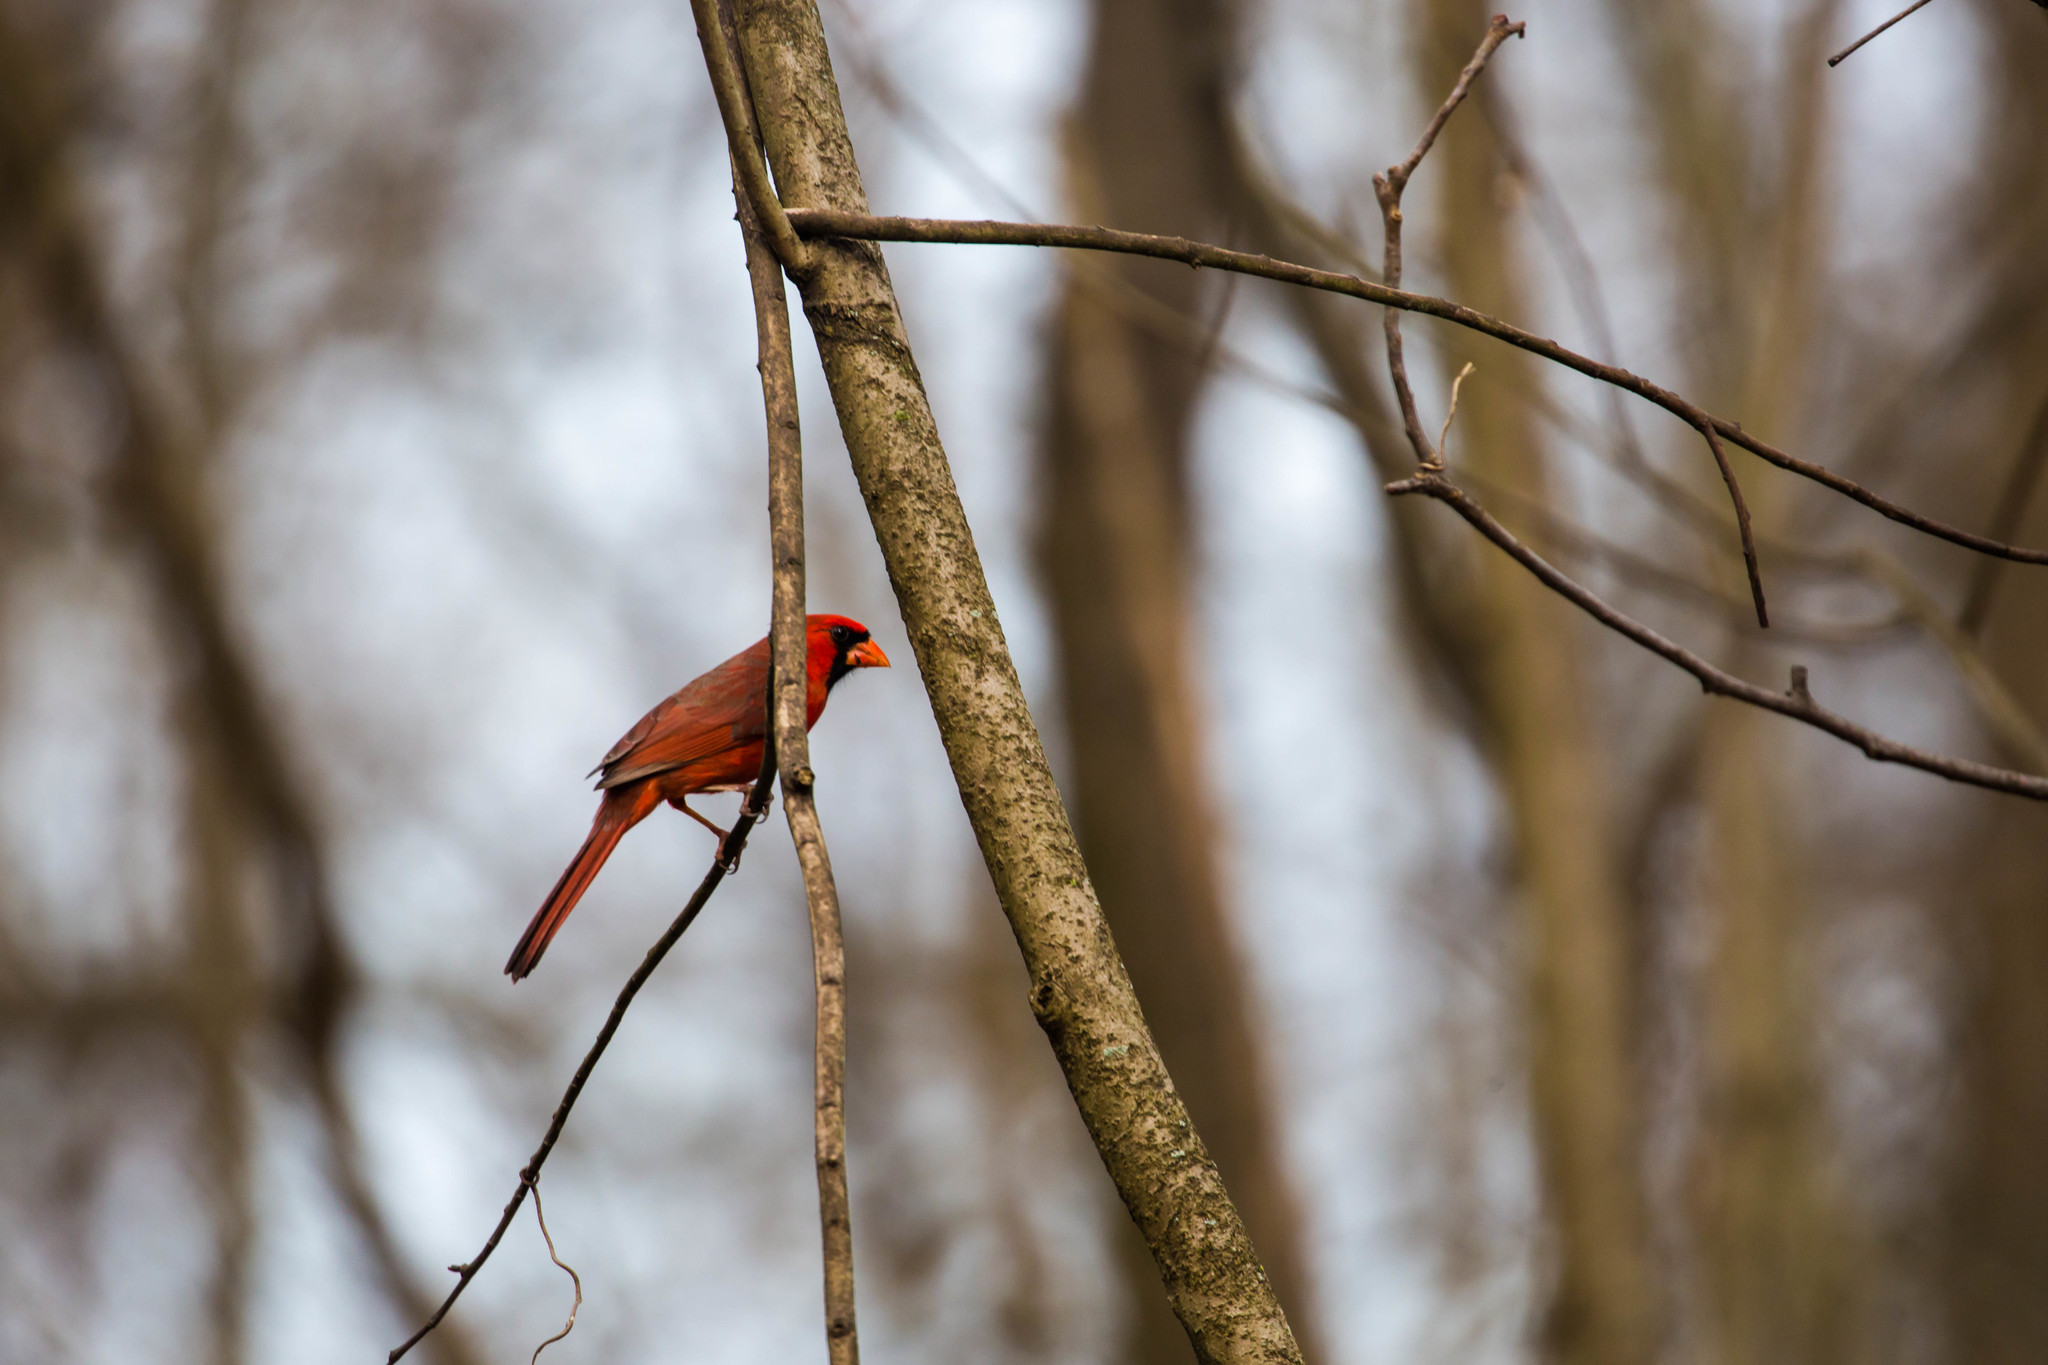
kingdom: Animalia
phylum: Chordata
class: Aves
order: Passeriformes
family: Cardinalidae
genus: Cardinalis
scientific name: Cardinalis cardinalis
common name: Northern cardinal
